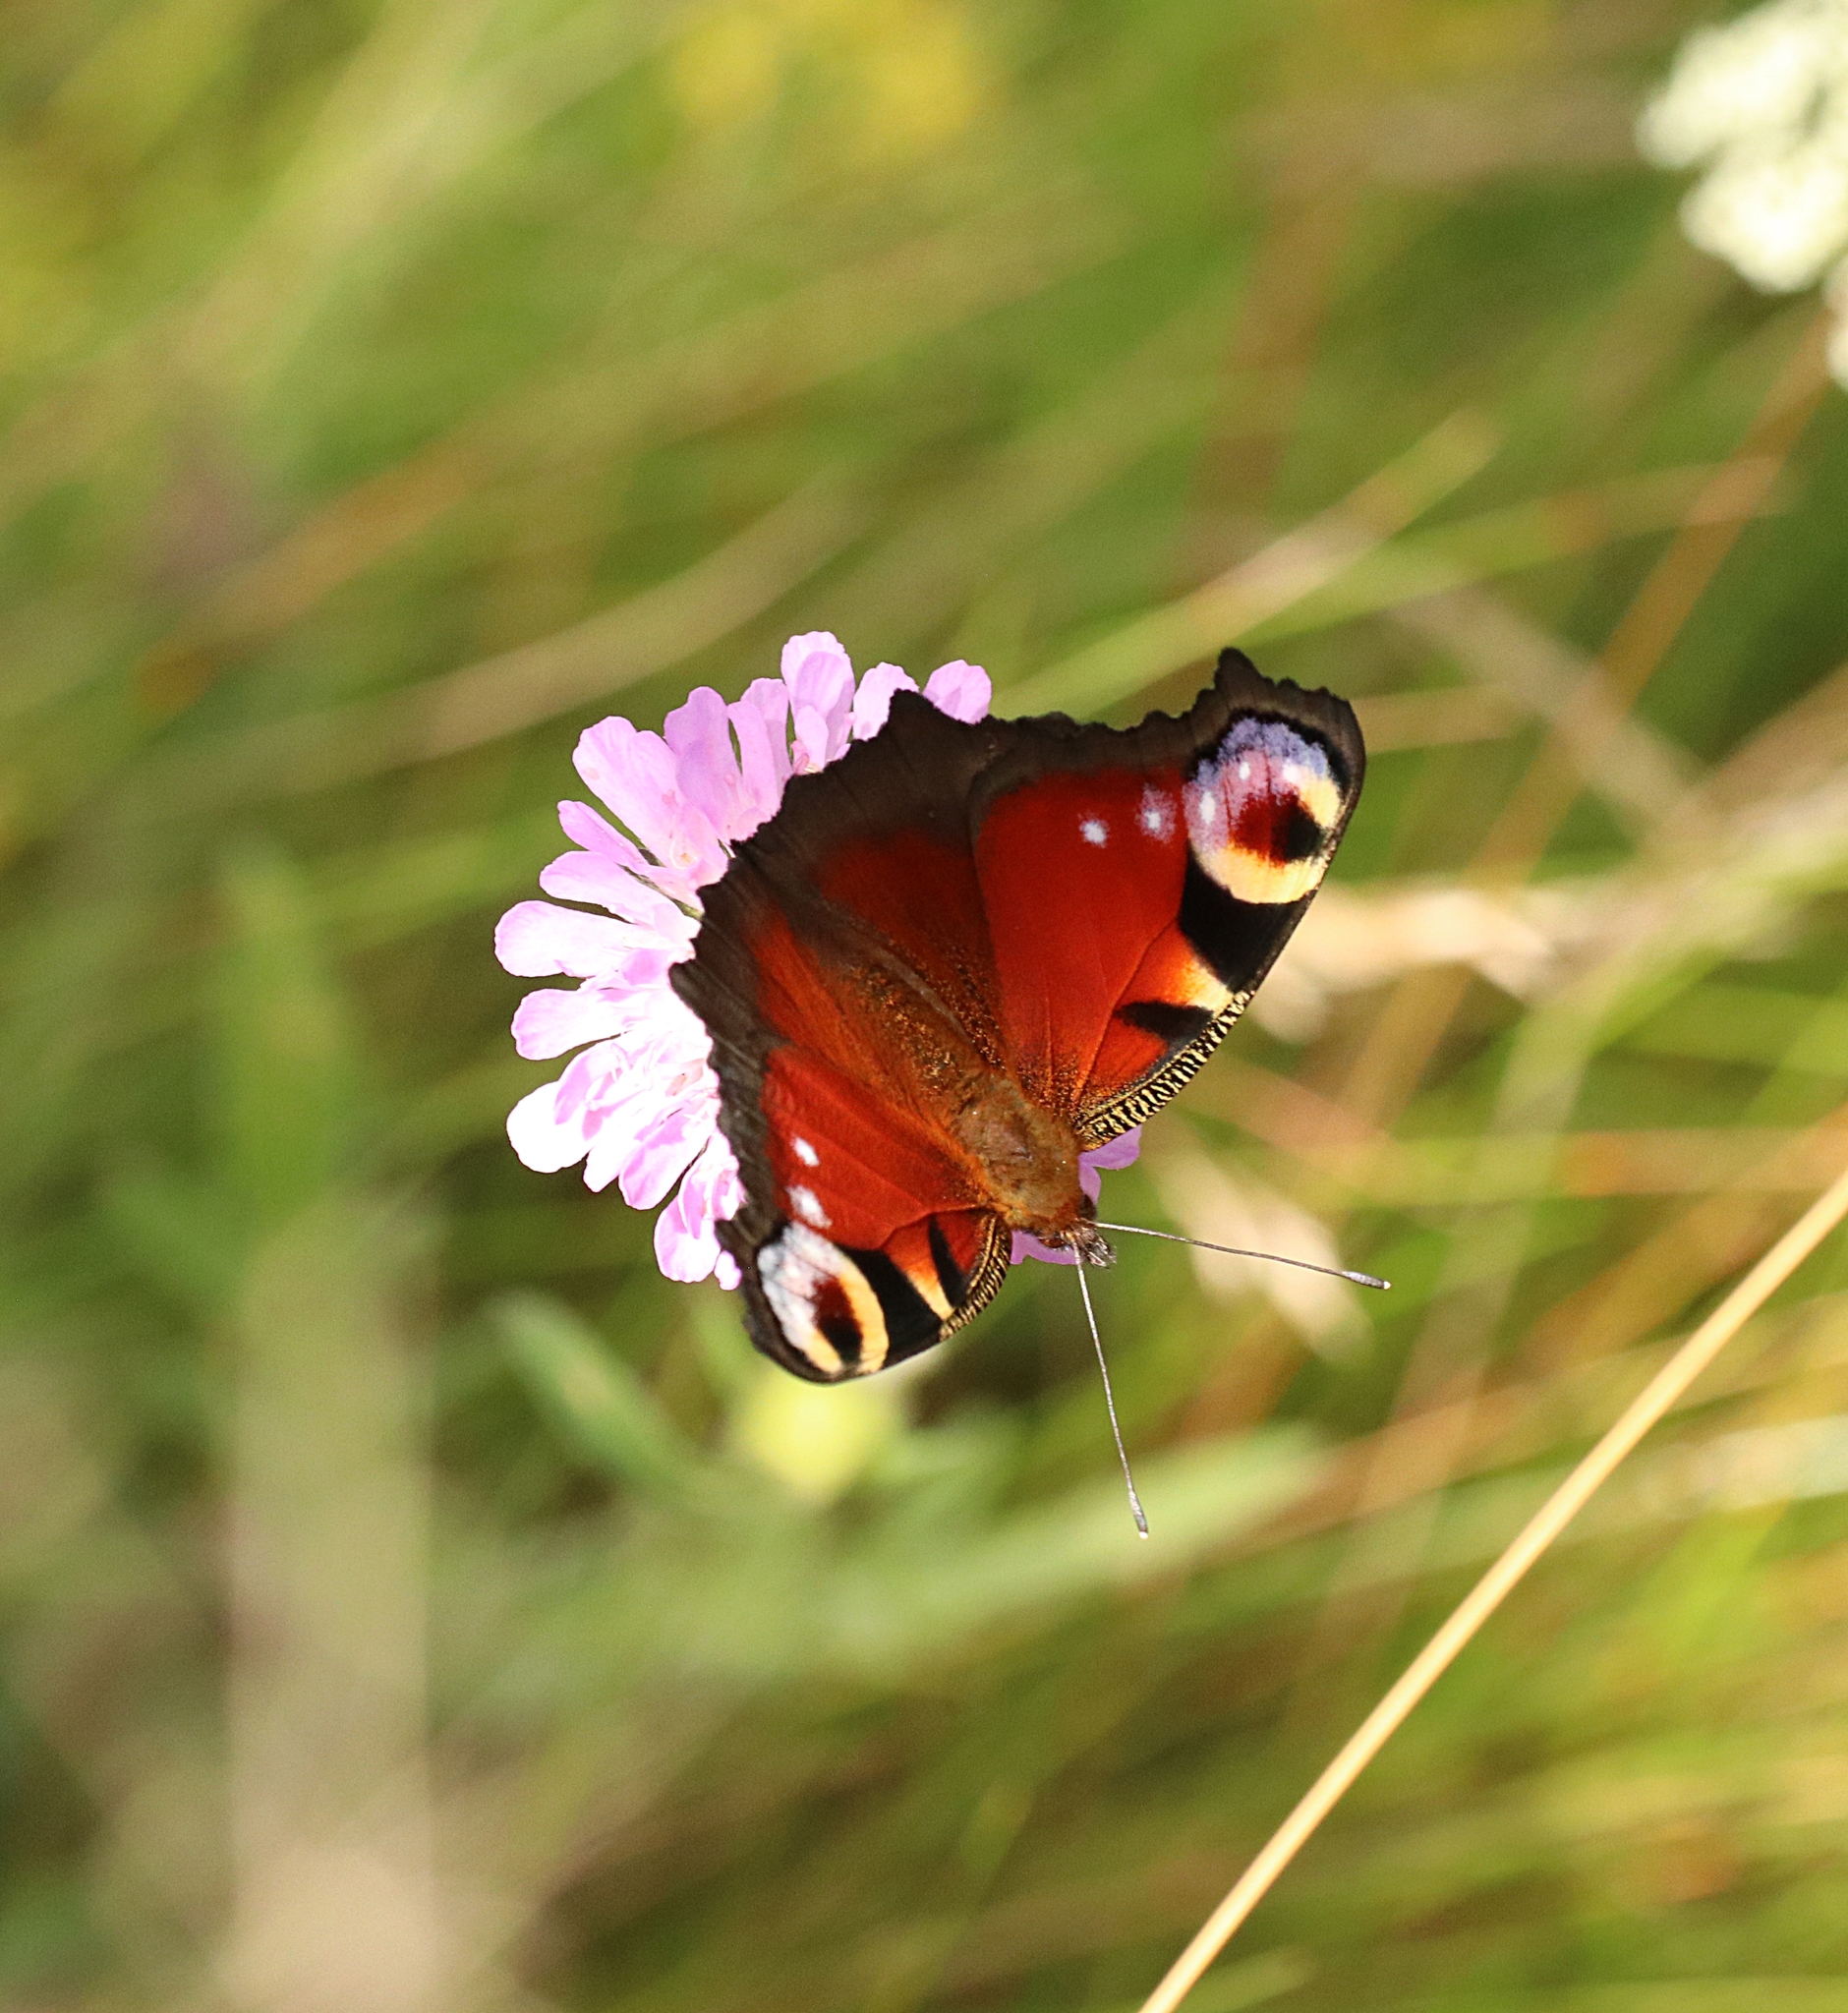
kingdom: Animalia
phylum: Arthropoda
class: Insecta
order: Lepidoptera
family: Nymphalidae
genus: Aglais
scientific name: Aglais io
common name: Peacock
